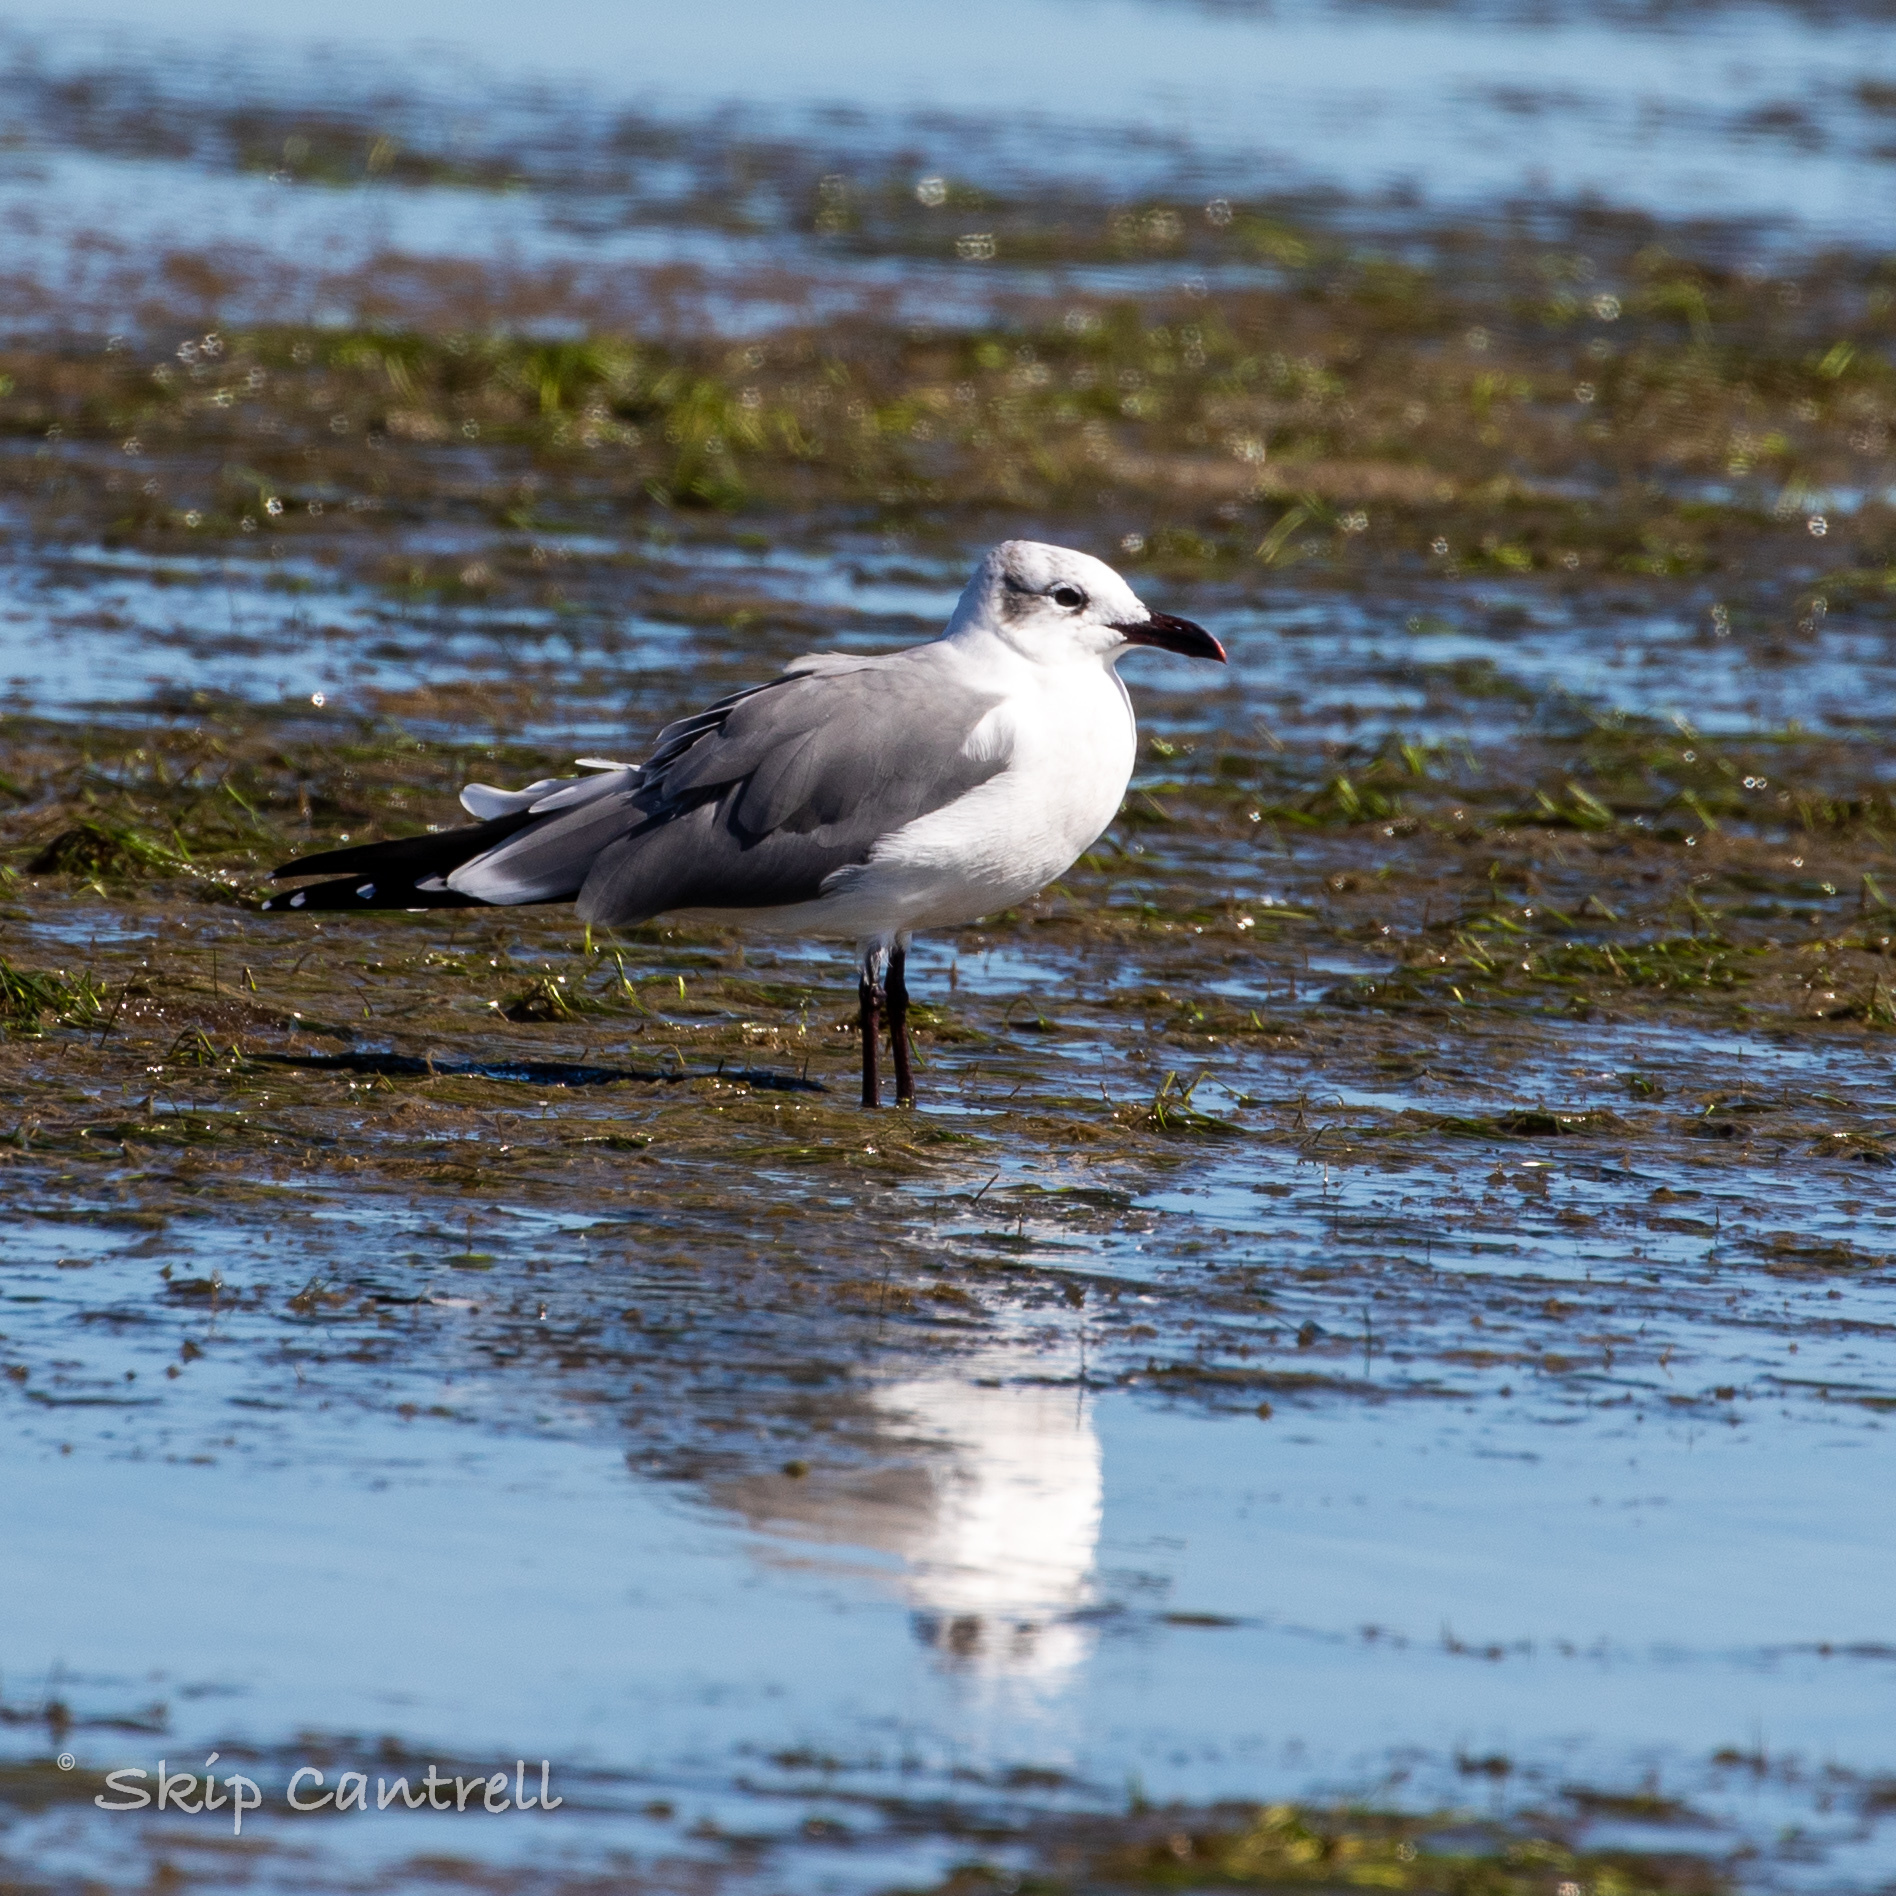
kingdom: Animalia
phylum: Chordata
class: Aves
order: Charadriiformes
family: Laridae
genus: Leucophaeus
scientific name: Leucophaeus atricilla
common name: Laughing gull
